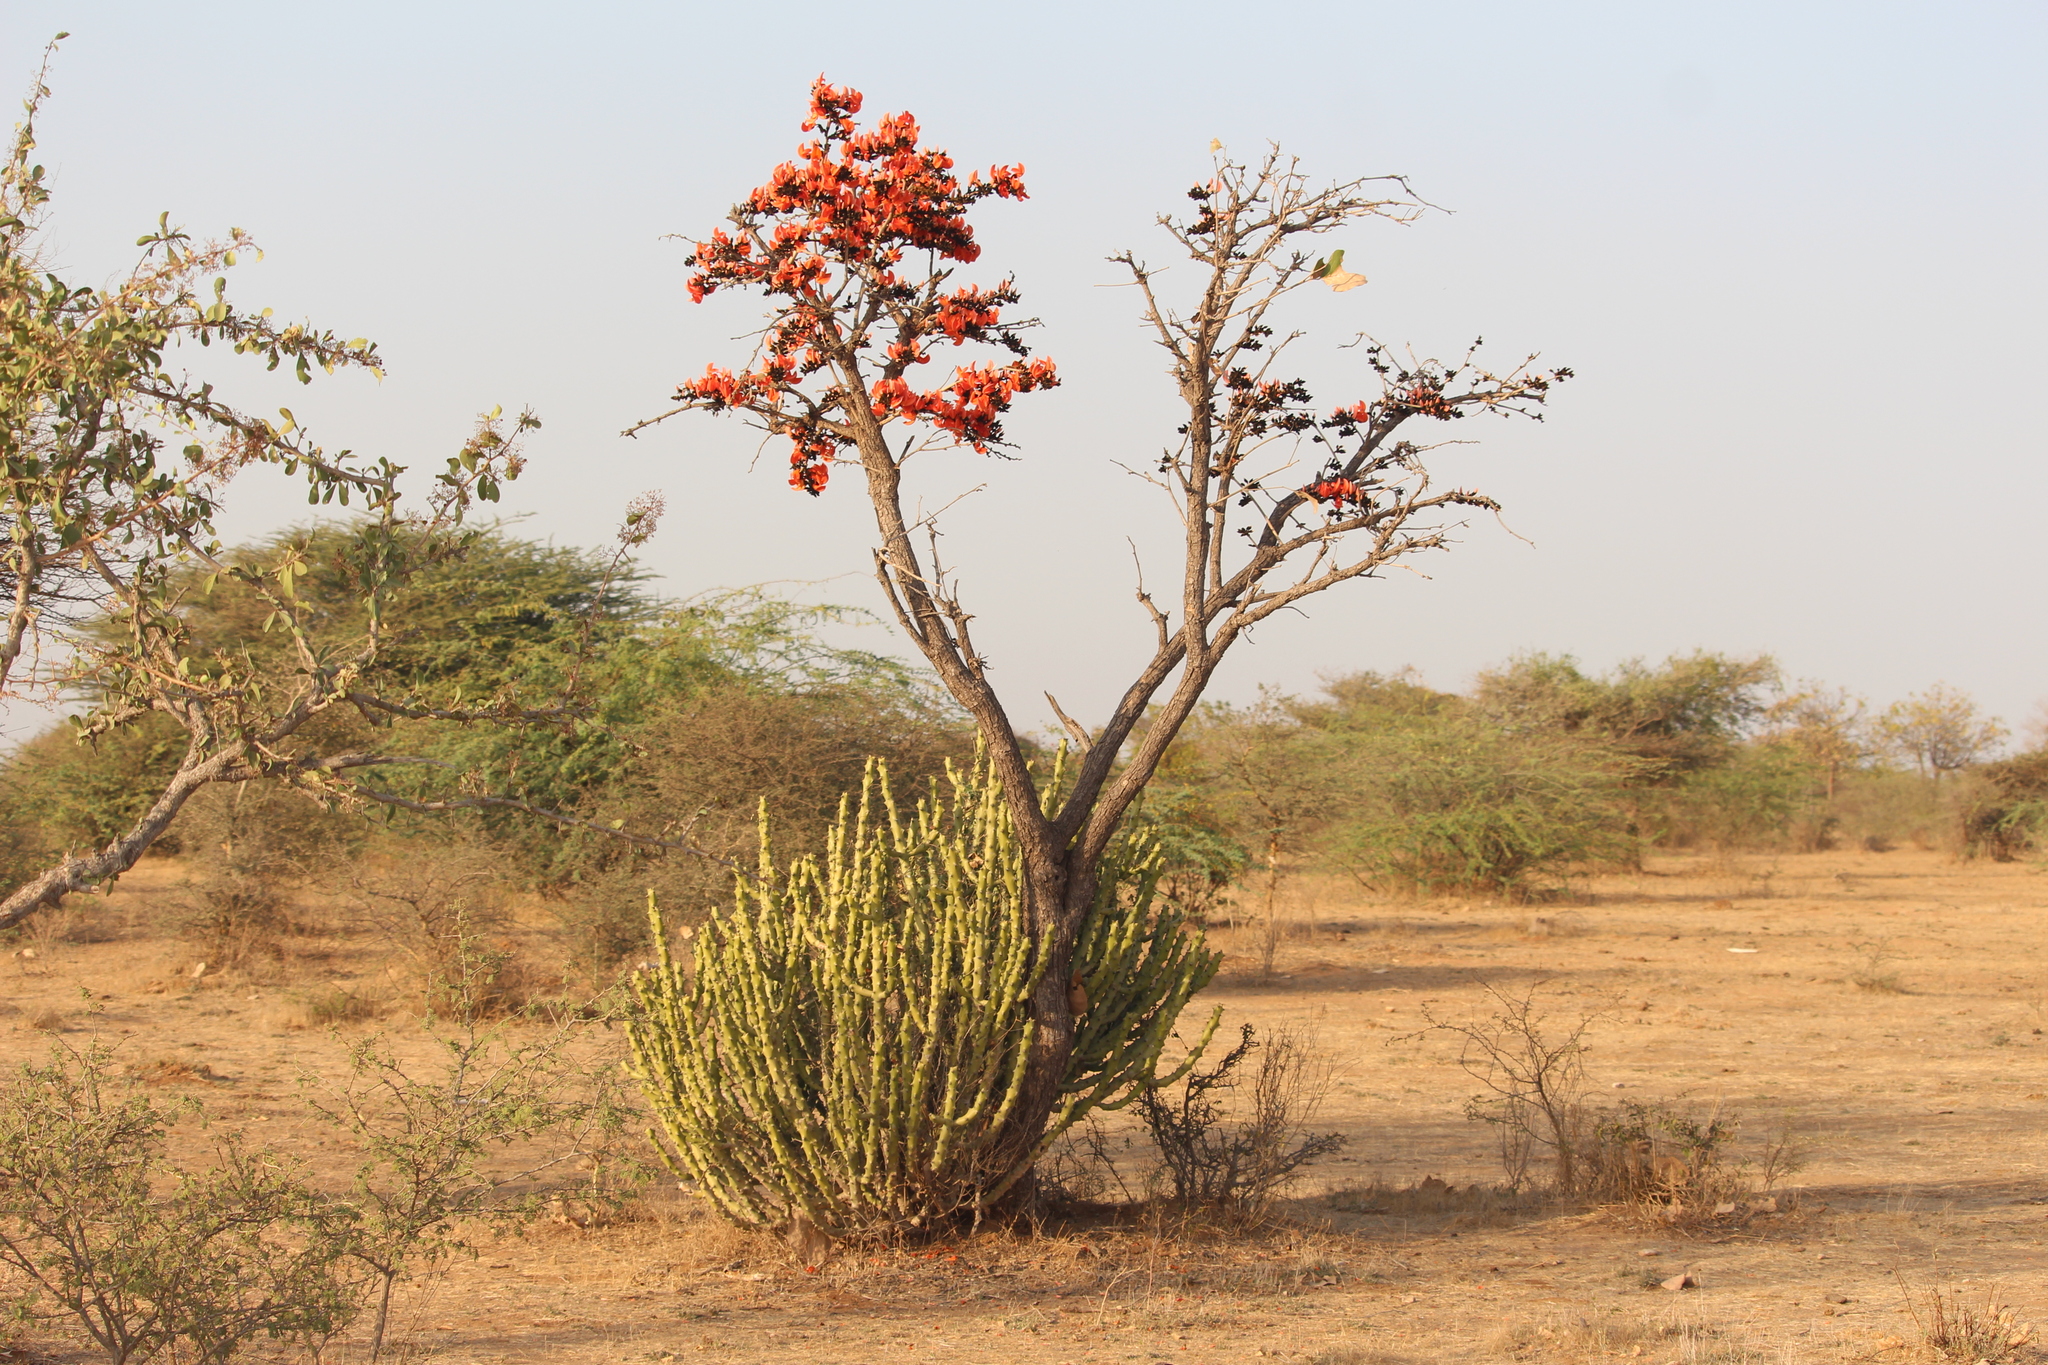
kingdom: Plantae
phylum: Tracheophyta
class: Magnoliopsida
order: Fabales
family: Fabaceae
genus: Butea
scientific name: Butea monosperma
